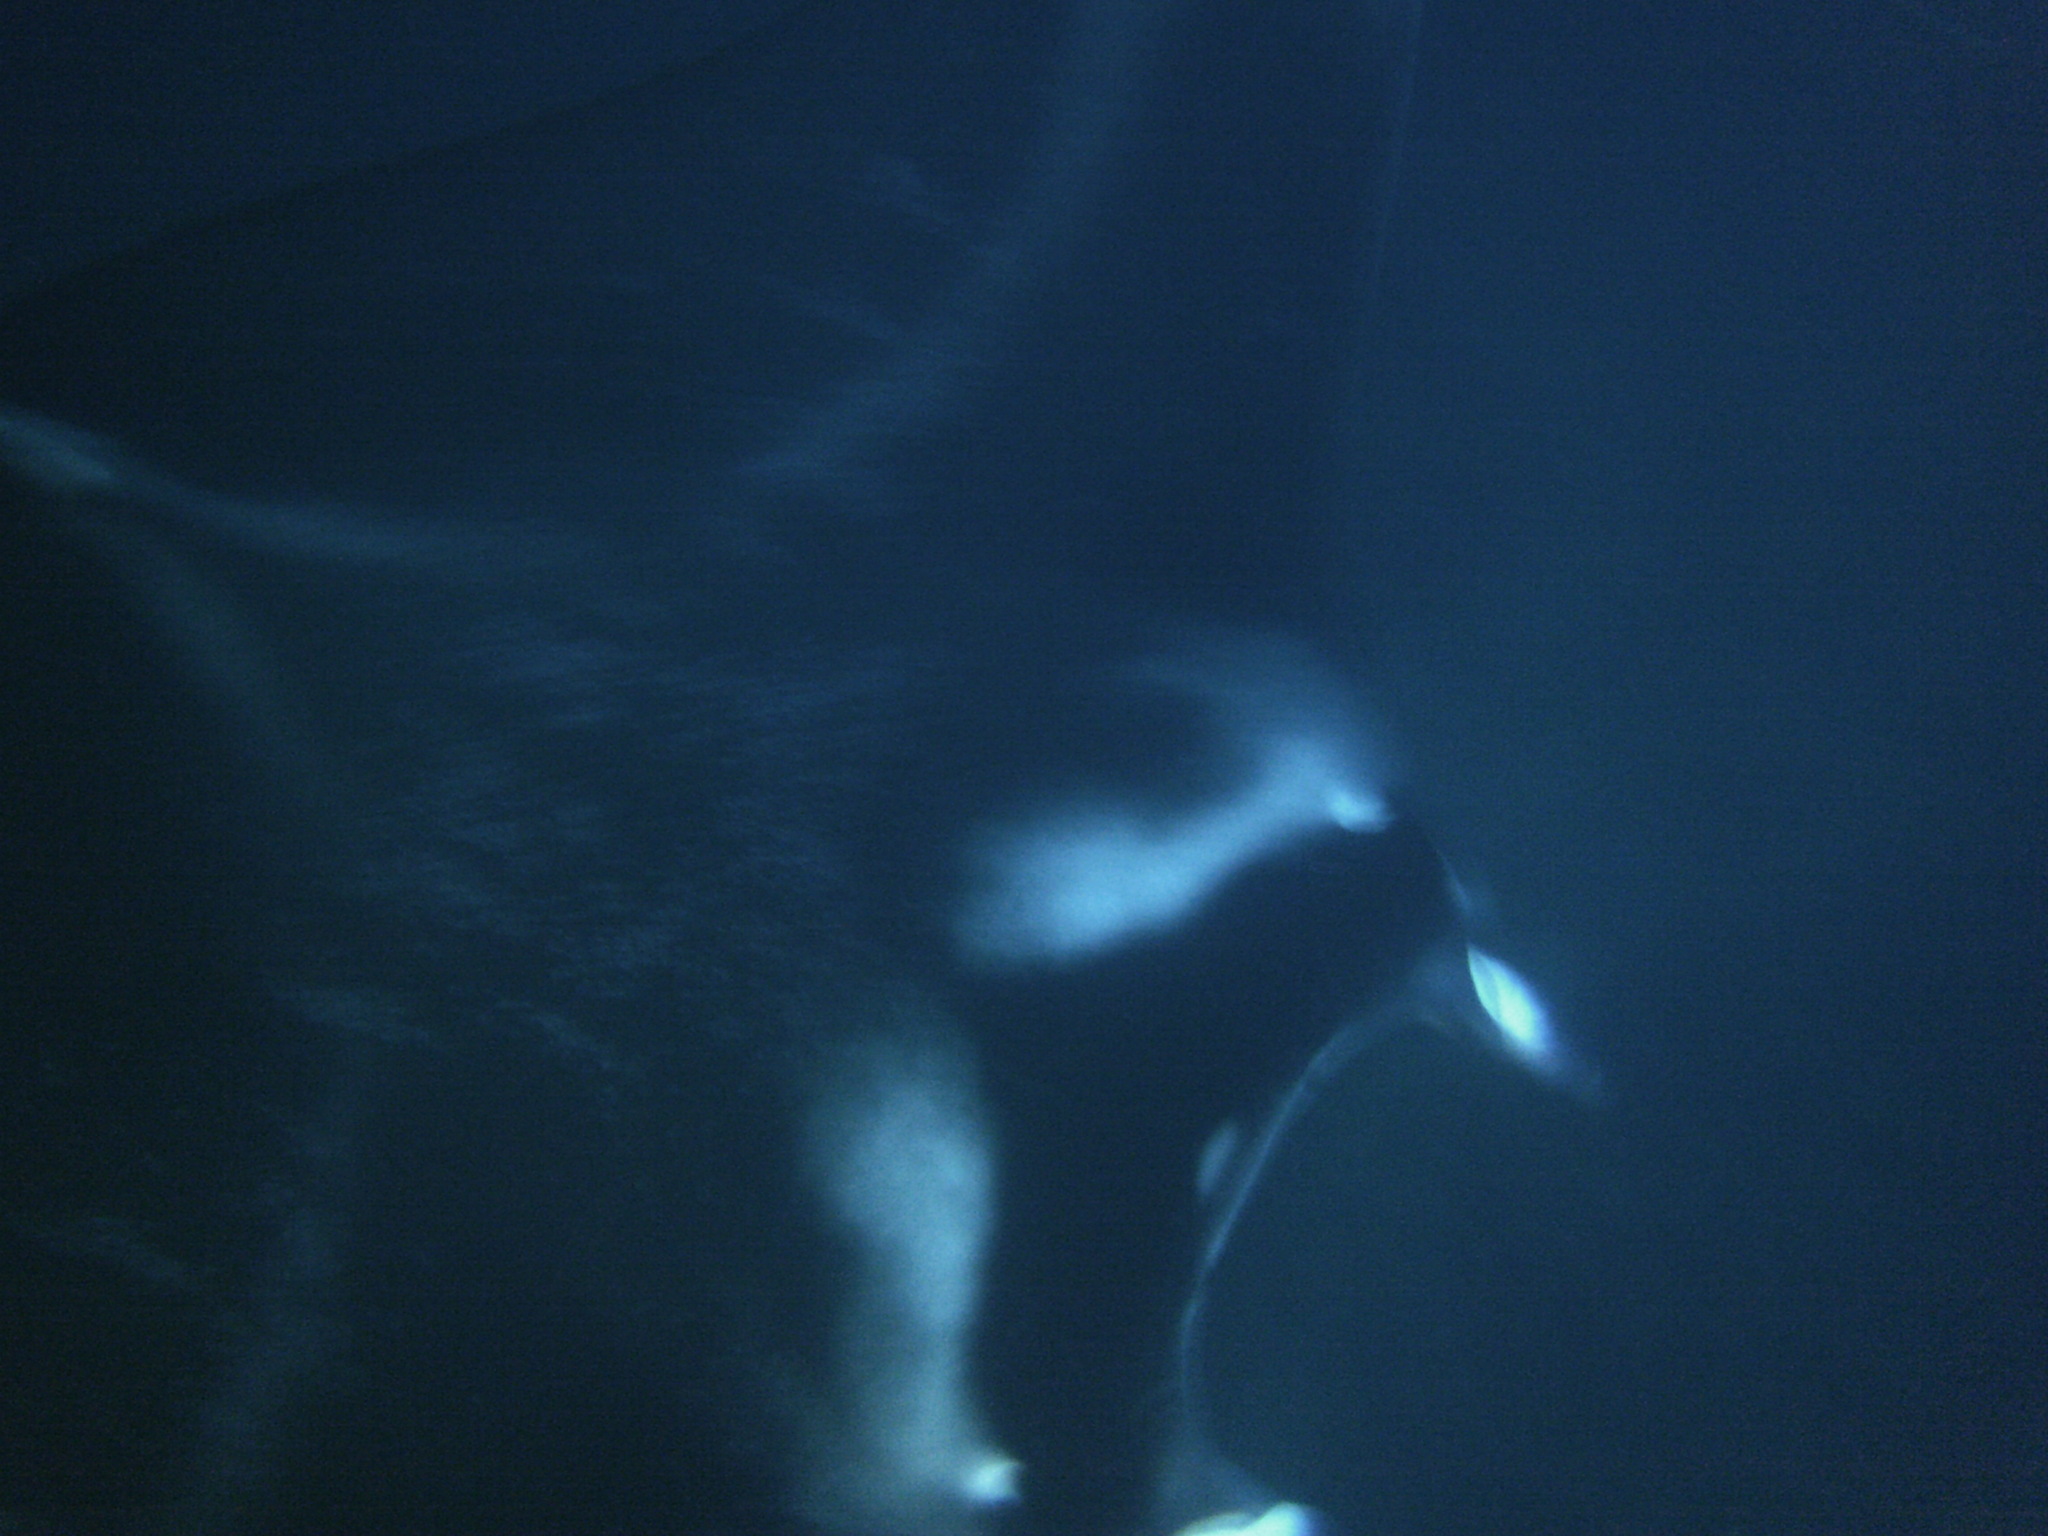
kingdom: Animalia
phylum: Chordata
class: Elasmobranchii
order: Myliobatiformes
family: Myliobatidae
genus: Mobula
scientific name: Mobula alfredi
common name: Reef manta ray
